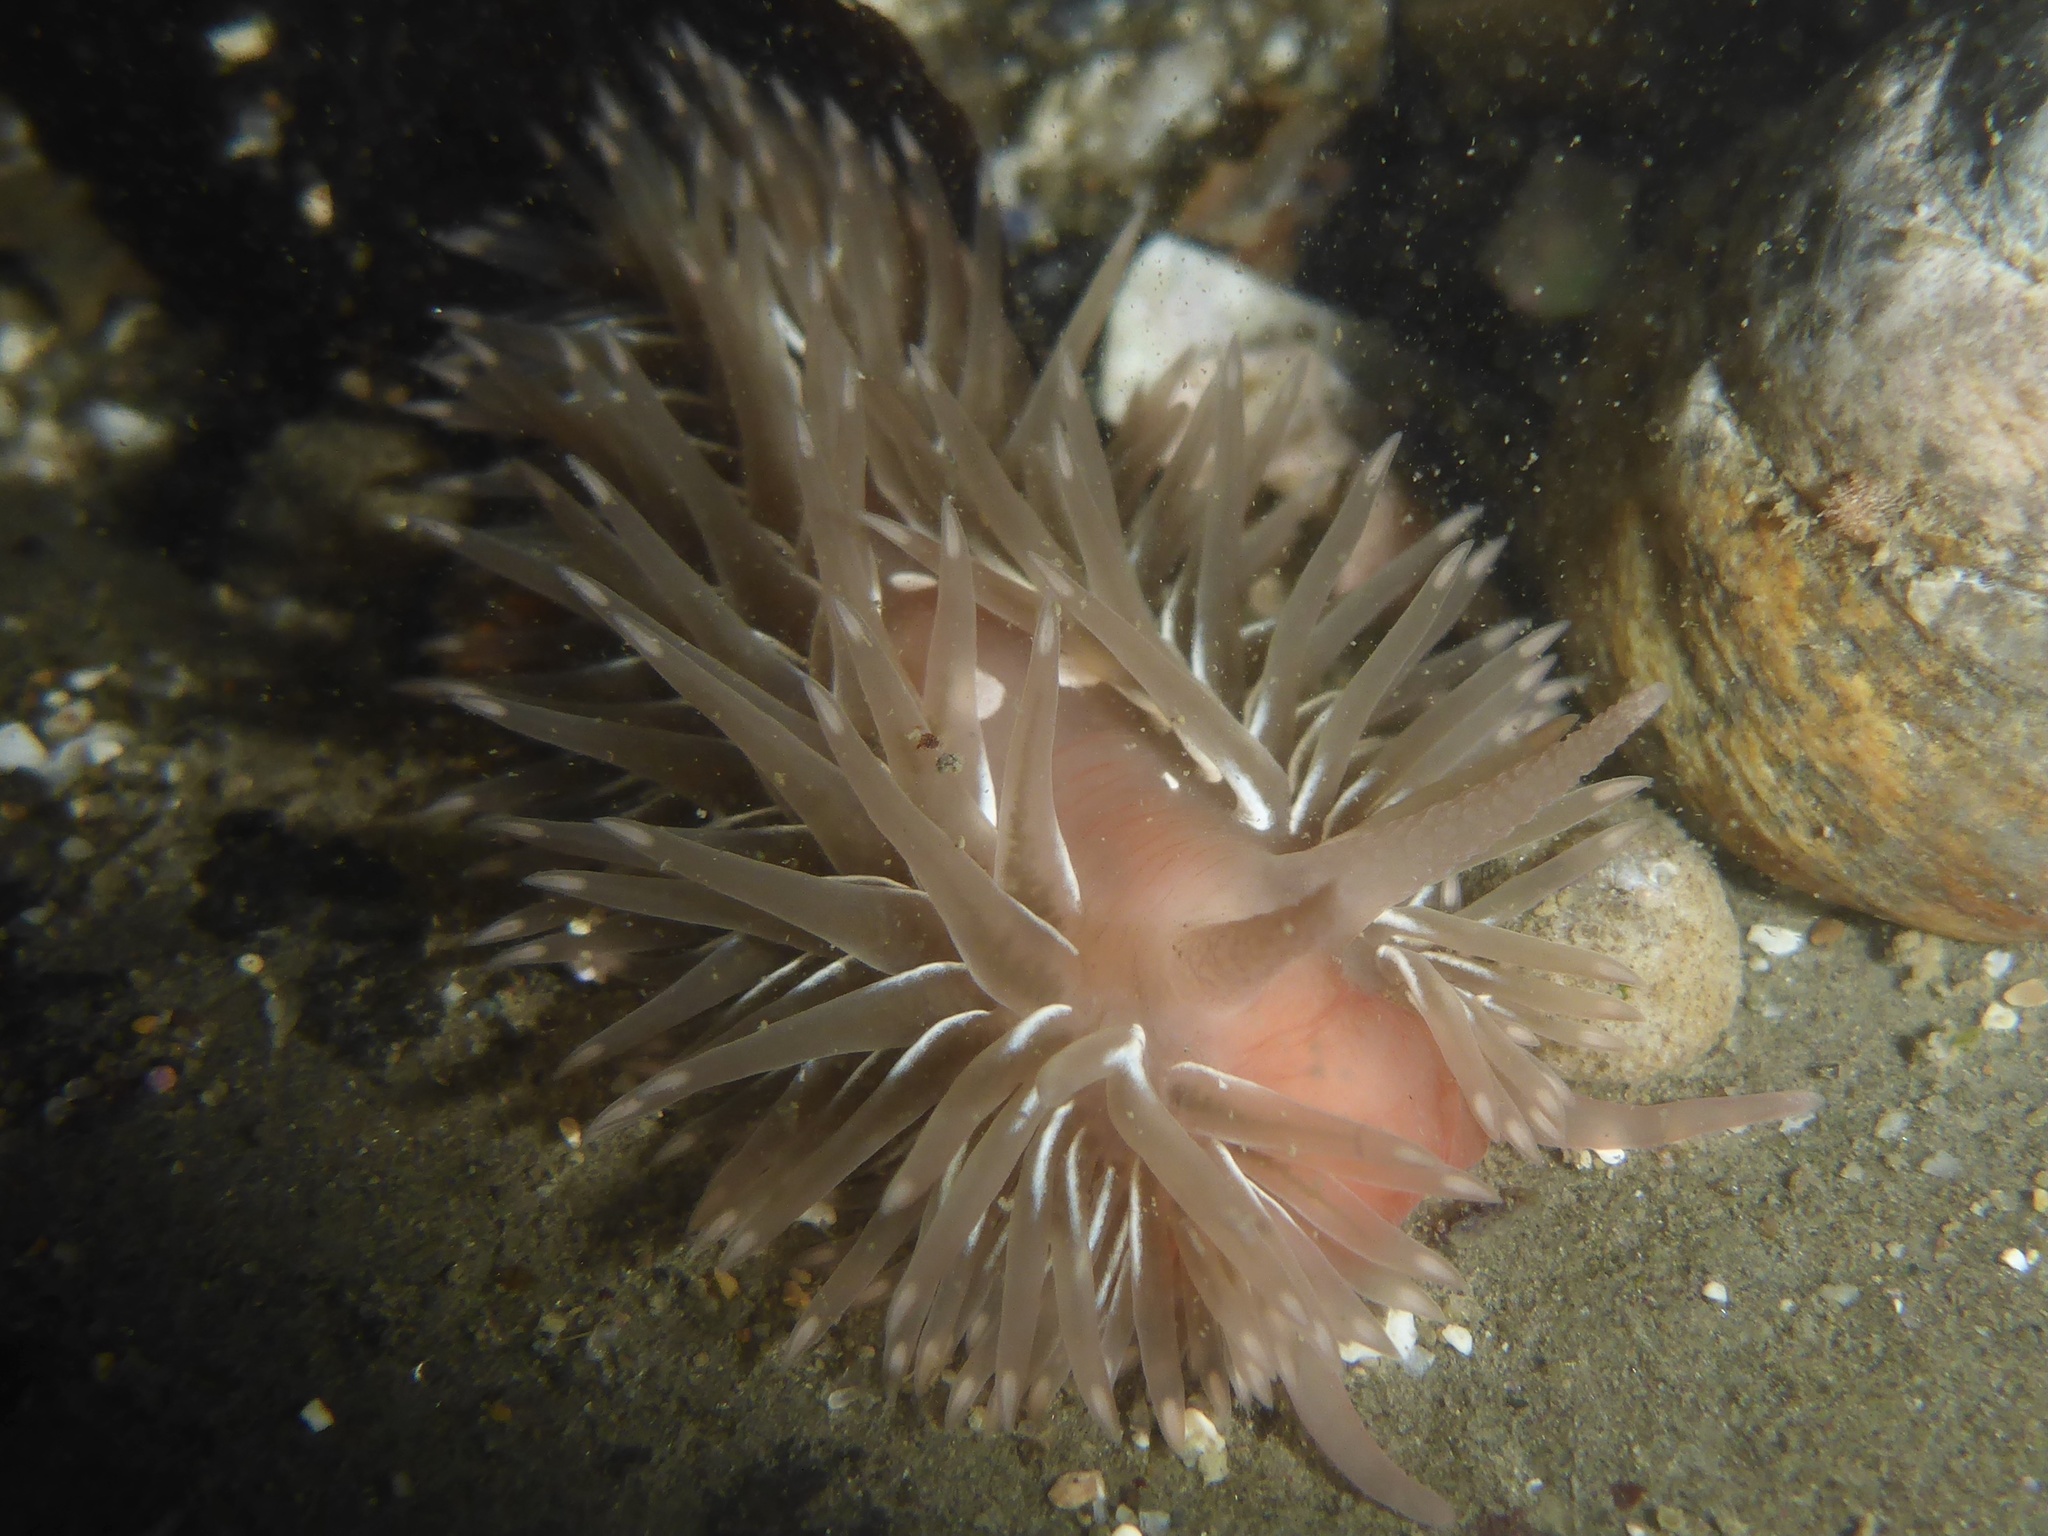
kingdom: Animalia
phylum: Mollusca
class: Gastropoda
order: Nudibranchia
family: Aeolidiidae
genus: Aeolidia
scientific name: Aeolidia loui
